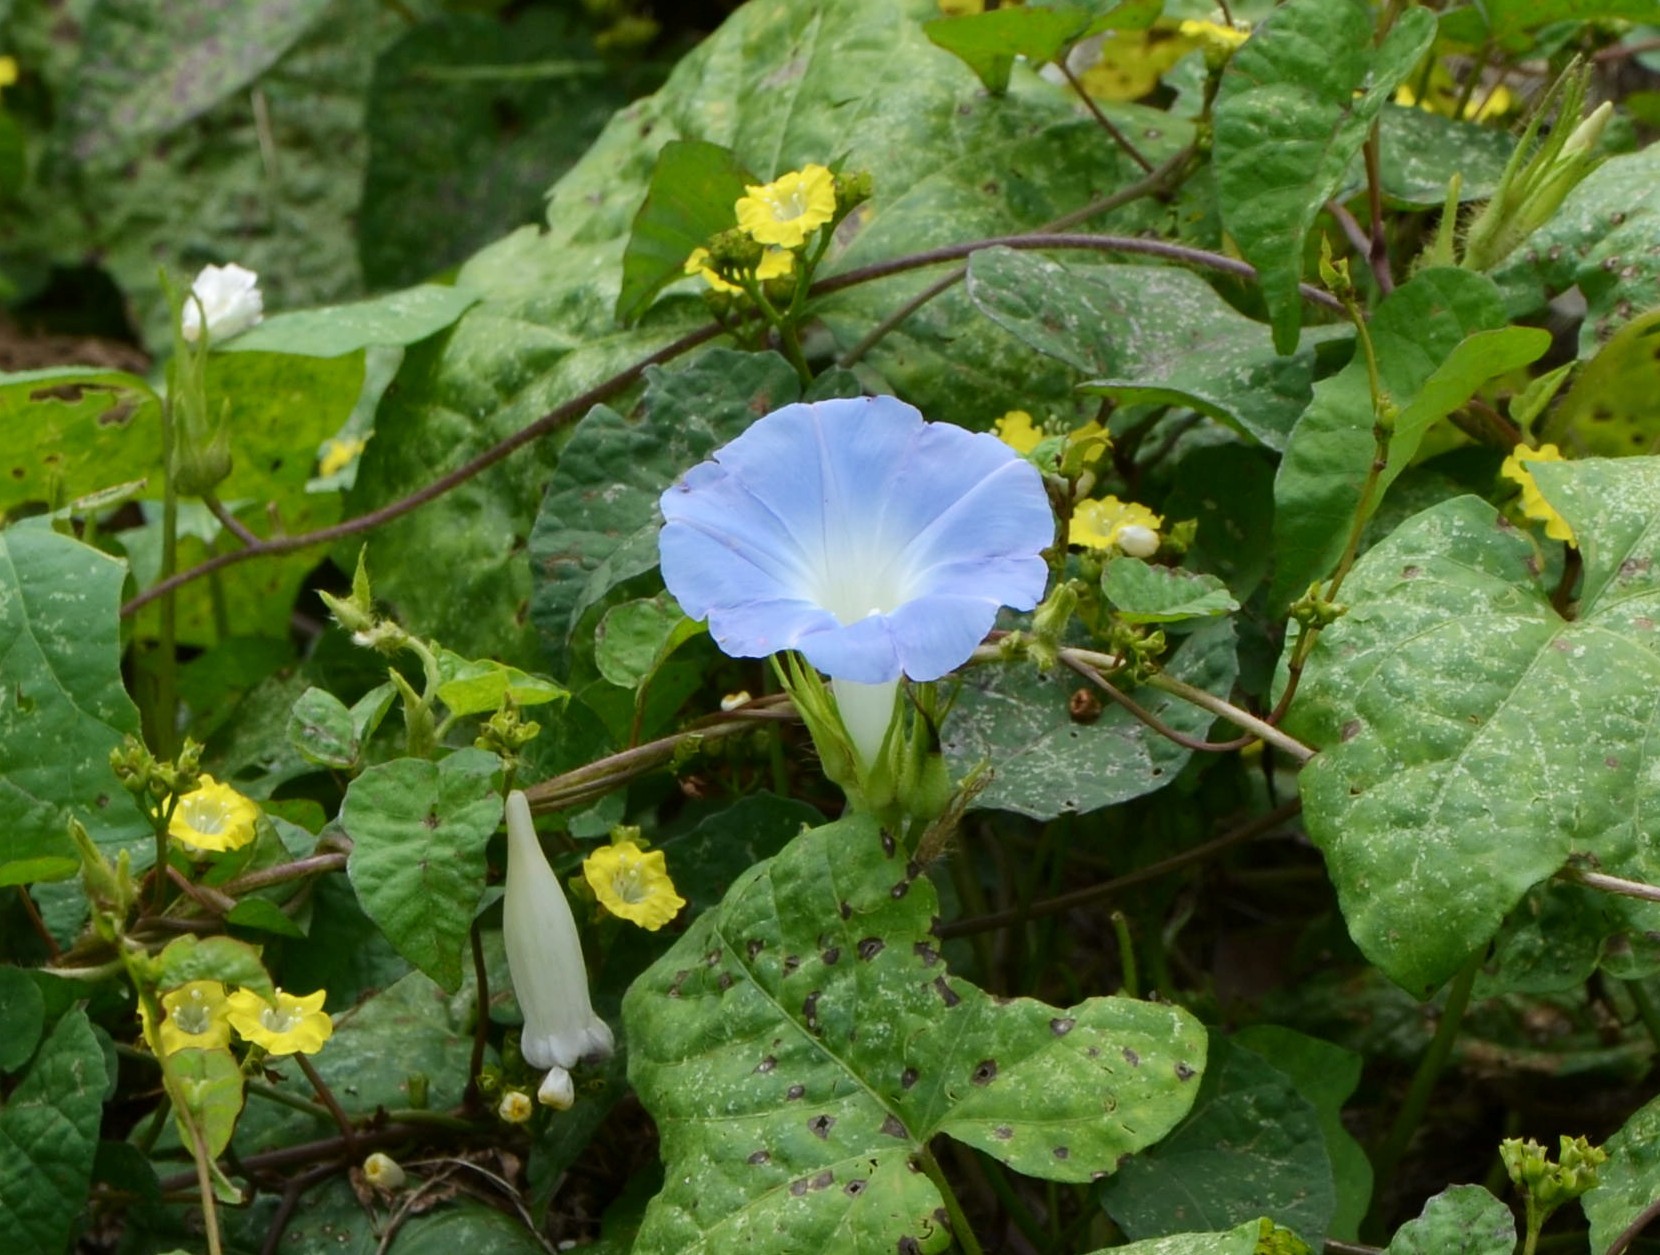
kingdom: Plantae
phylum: Tracheophyta
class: Magnoliopsida
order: Solanales
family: Convolvulaceae
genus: Ipomoea
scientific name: Ipomoea nil
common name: Japanese morning-glory
